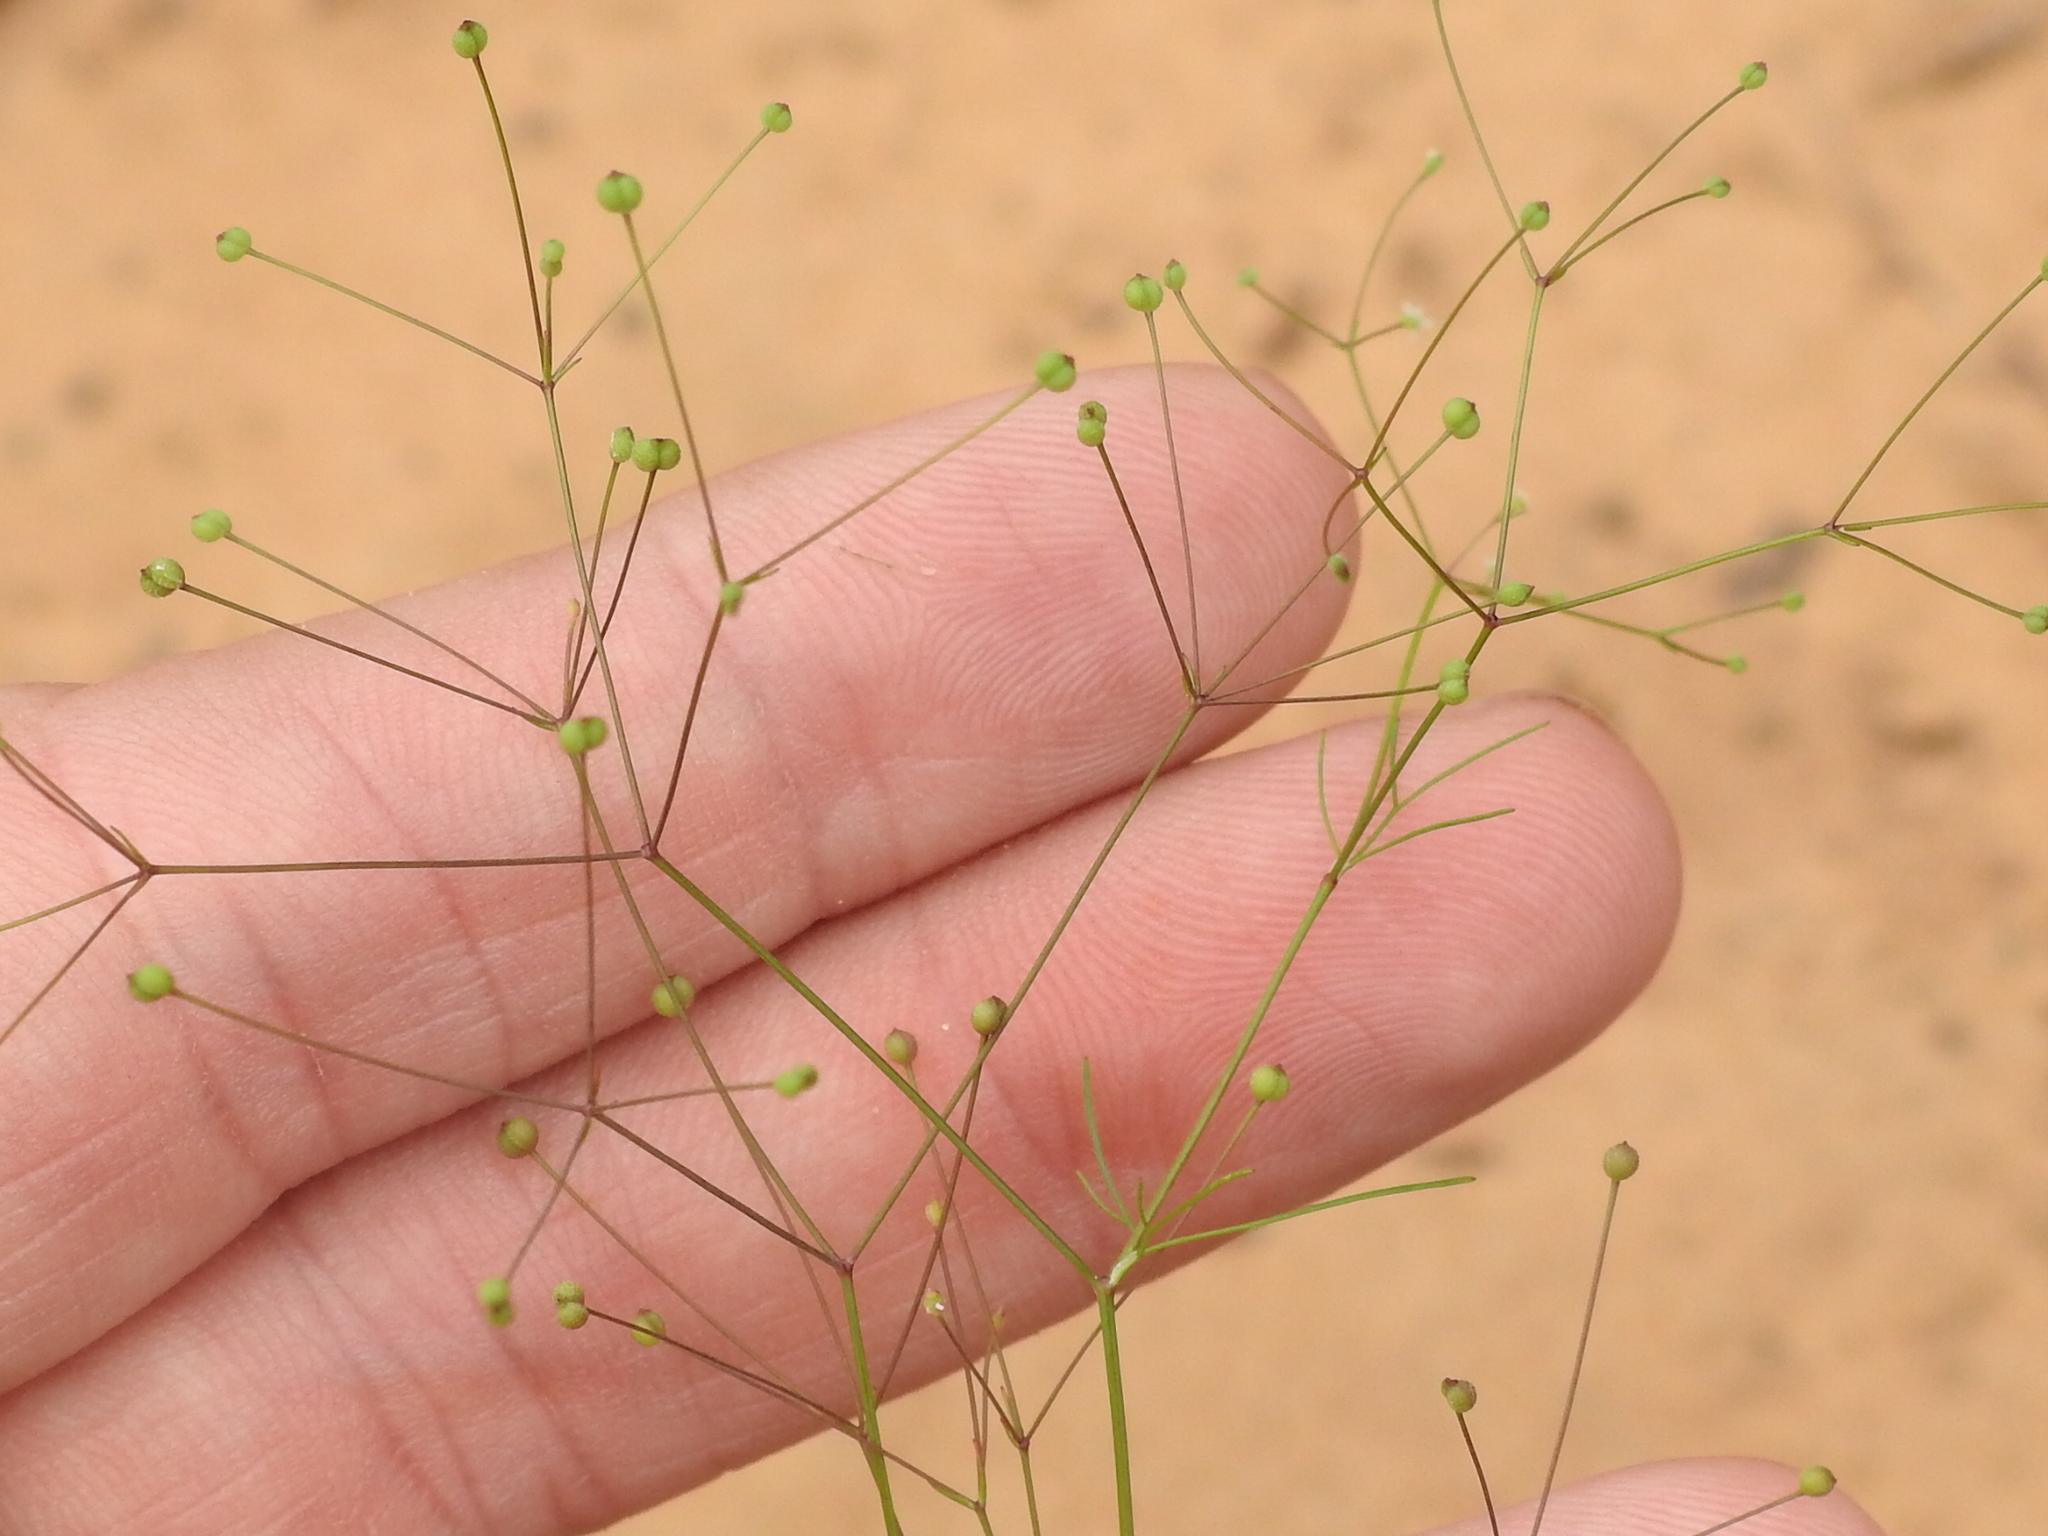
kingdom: Plantae
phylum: Tracheophyta
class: Magnoliopsida
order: Apiales
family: Apiaceae
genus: Spermolepis
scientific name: Spermolepis divaricata
